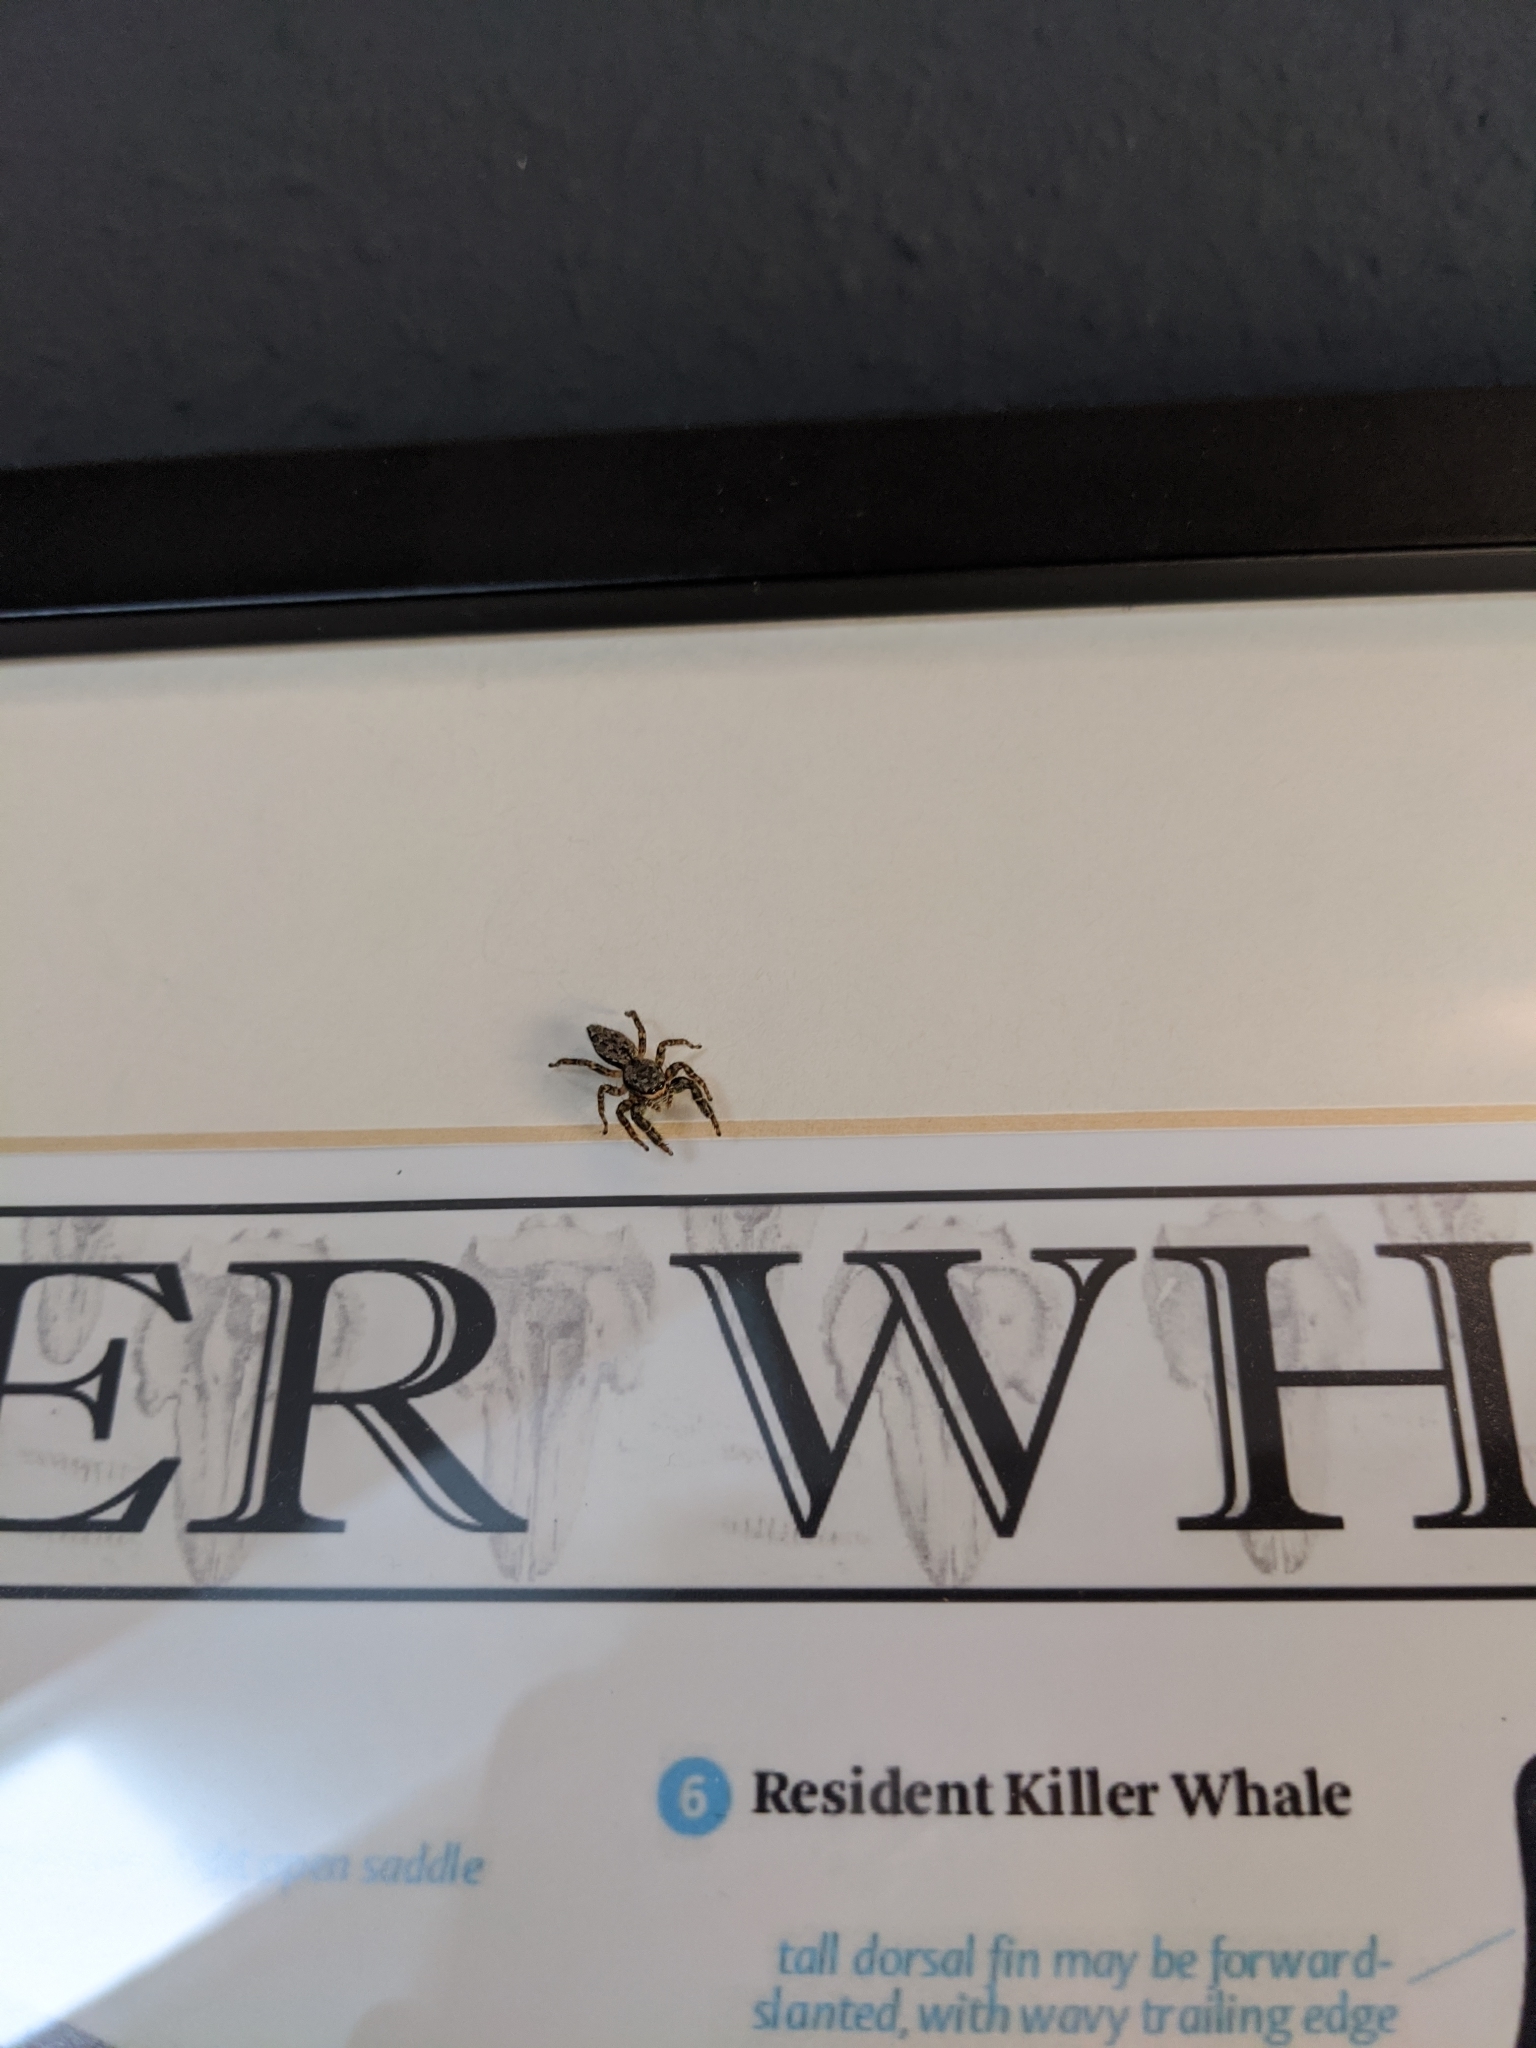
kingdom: Animalia
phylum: Arthropoda
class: Arachnida
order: Araneae
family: Salticidae
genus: Marpissa
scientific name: Marpissa muscosa
